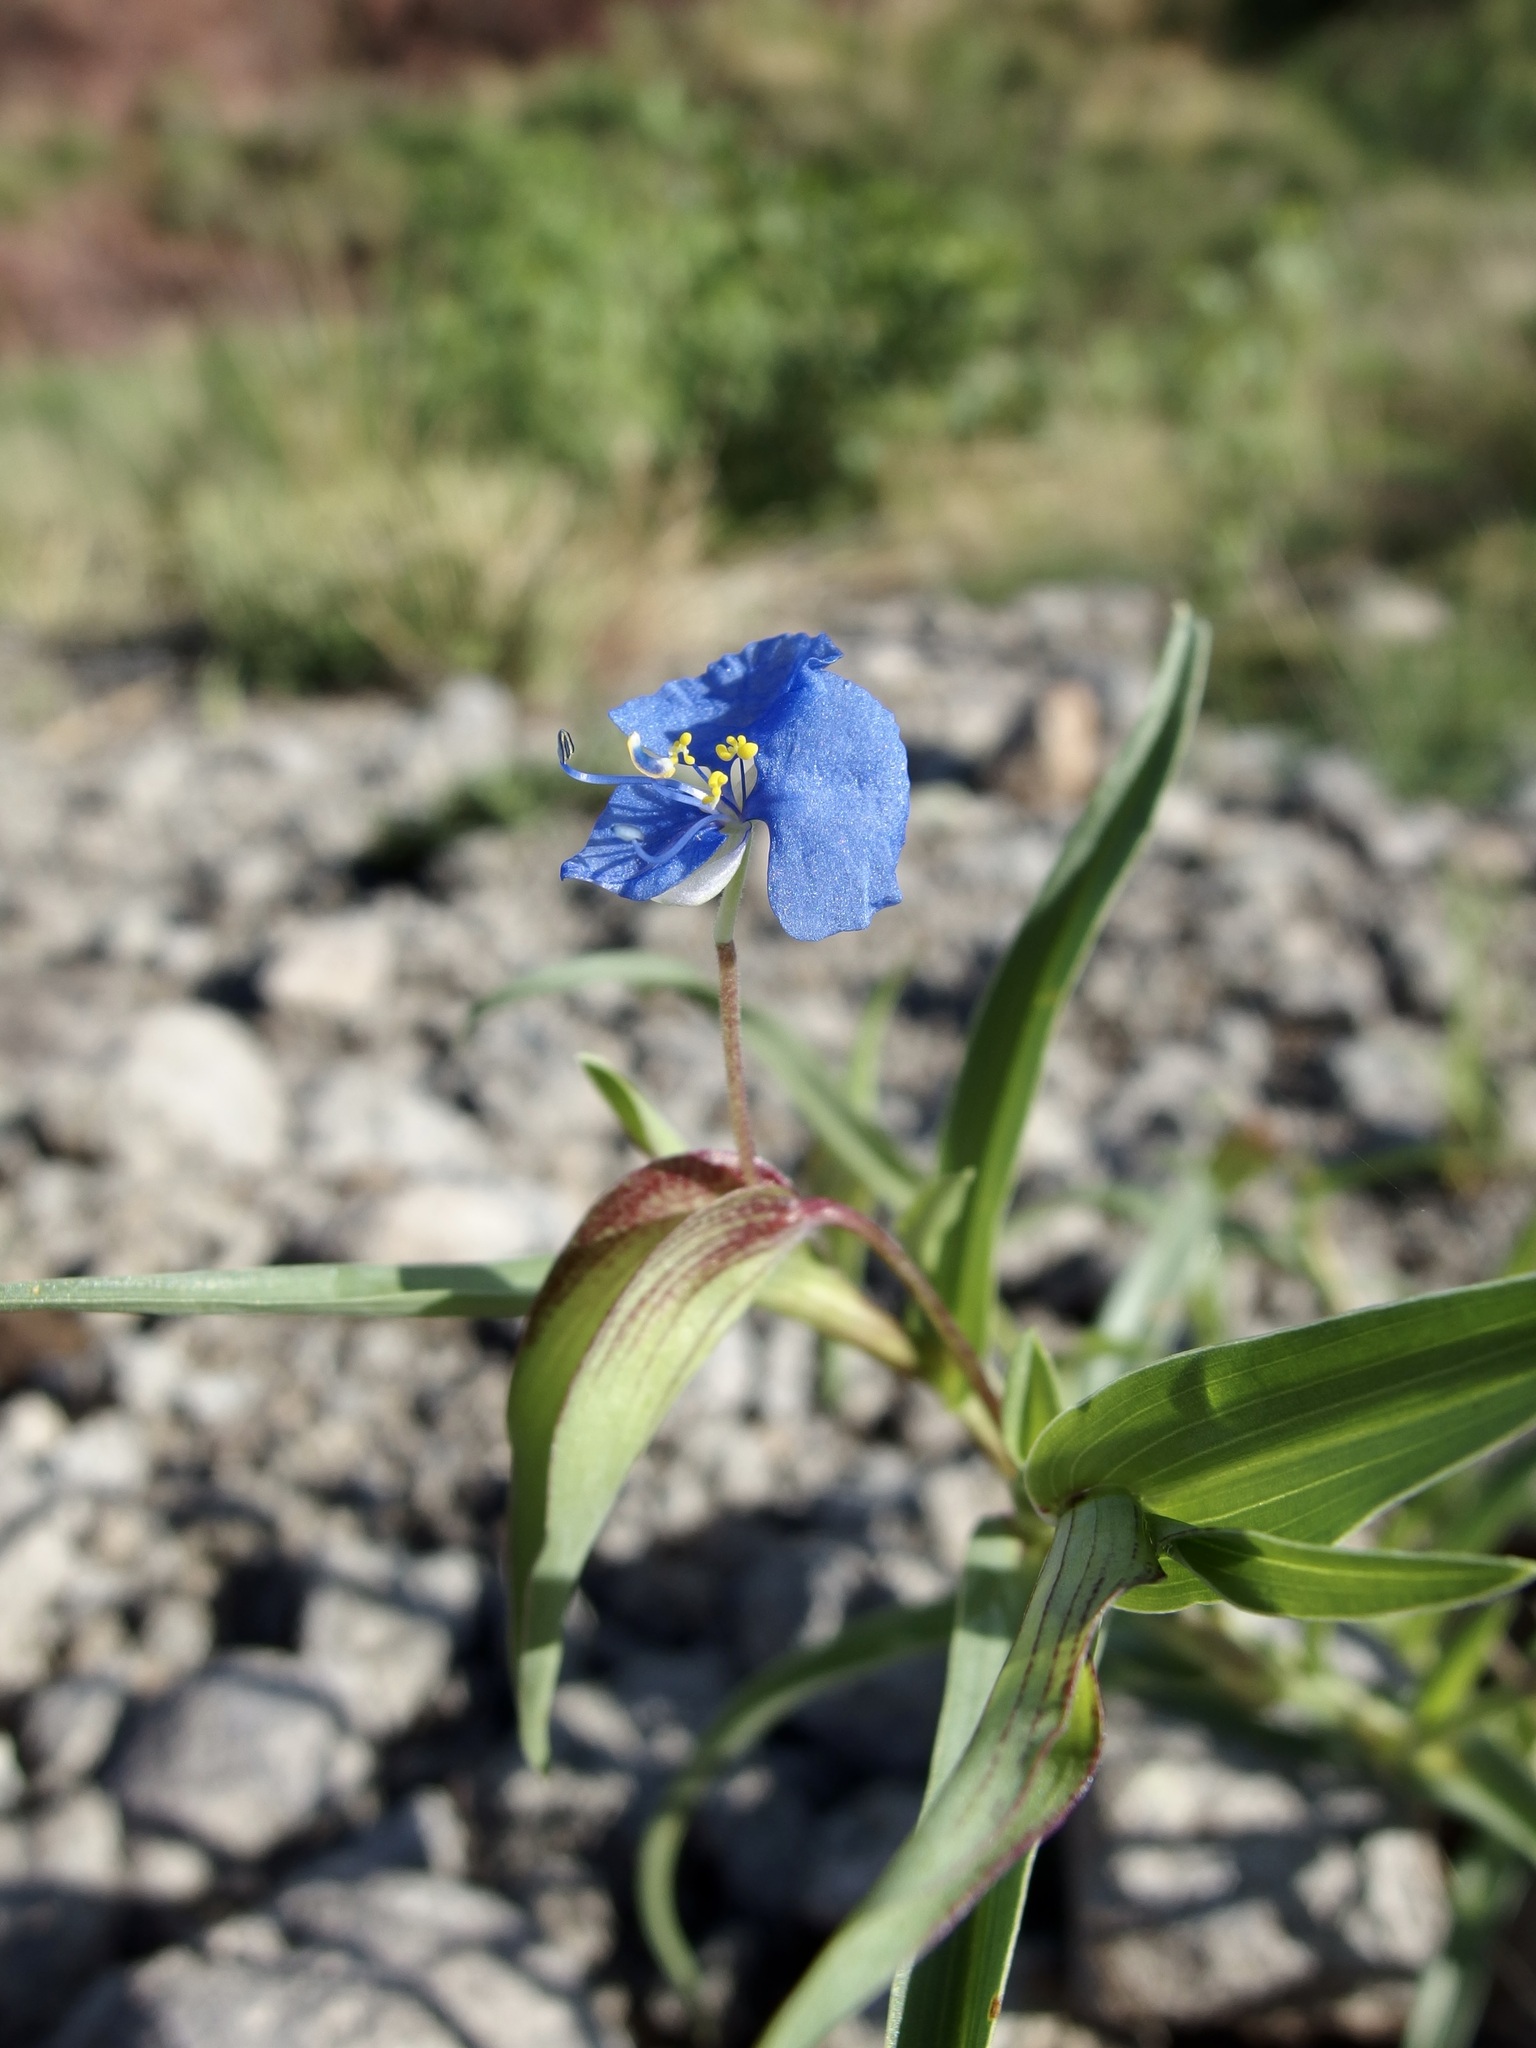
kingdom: Plantae
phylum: Tracheophyta
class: Liliopsida
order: Commelinales
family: Commelinaceae
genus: Commelina
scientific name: Commelina dianthifolia
